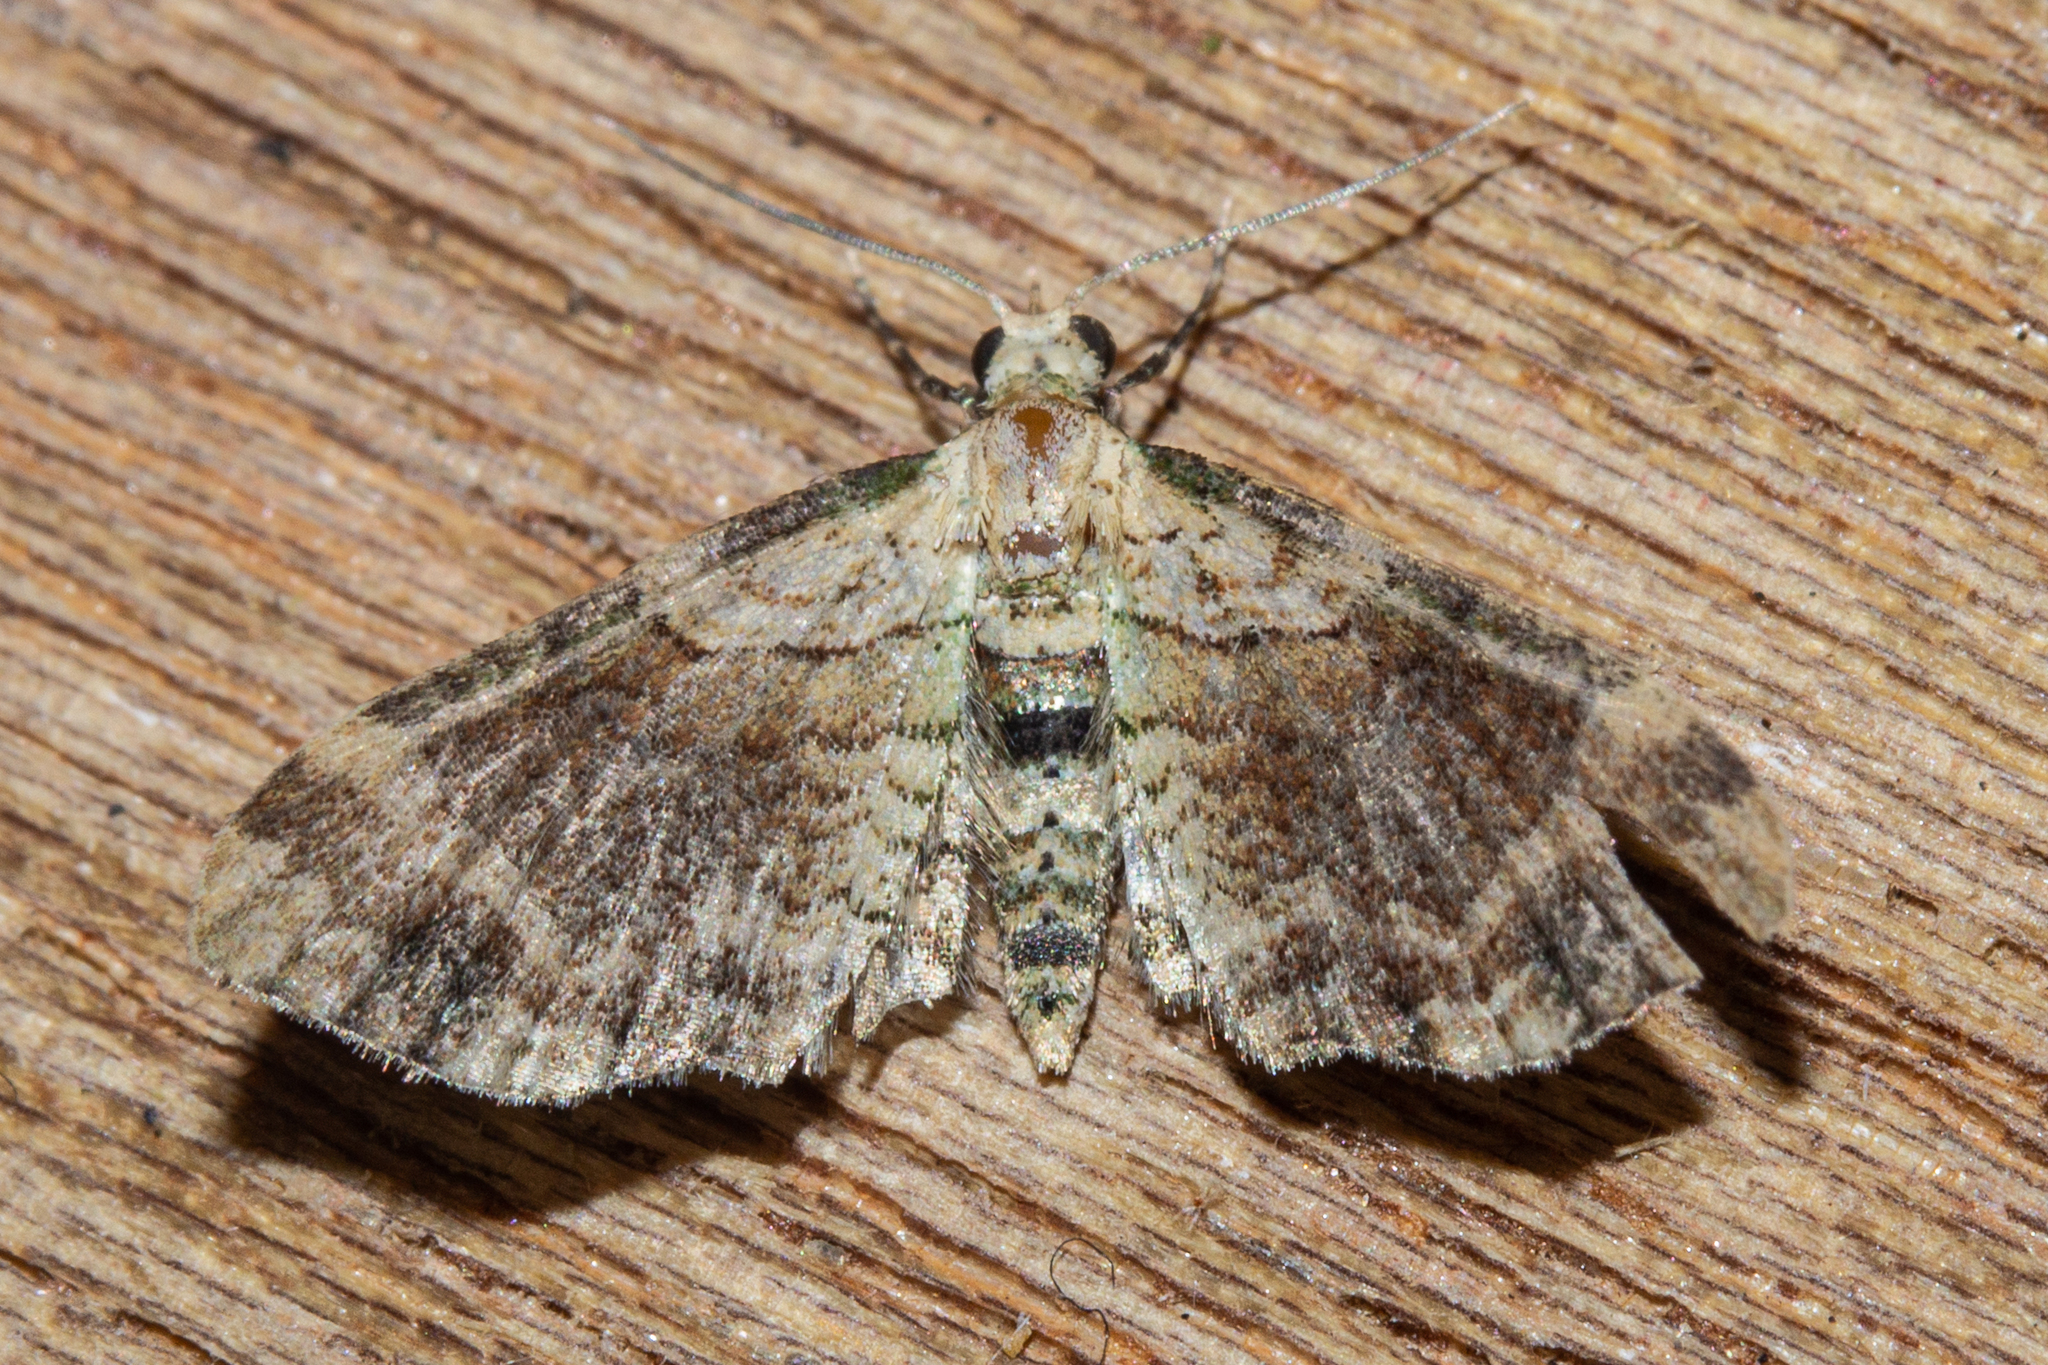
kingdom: Animalia
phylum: Arthropoda
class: Insecta
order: Lepidoptera
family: Geometridae
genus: Chloroclystis
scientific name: Chloroclystis
